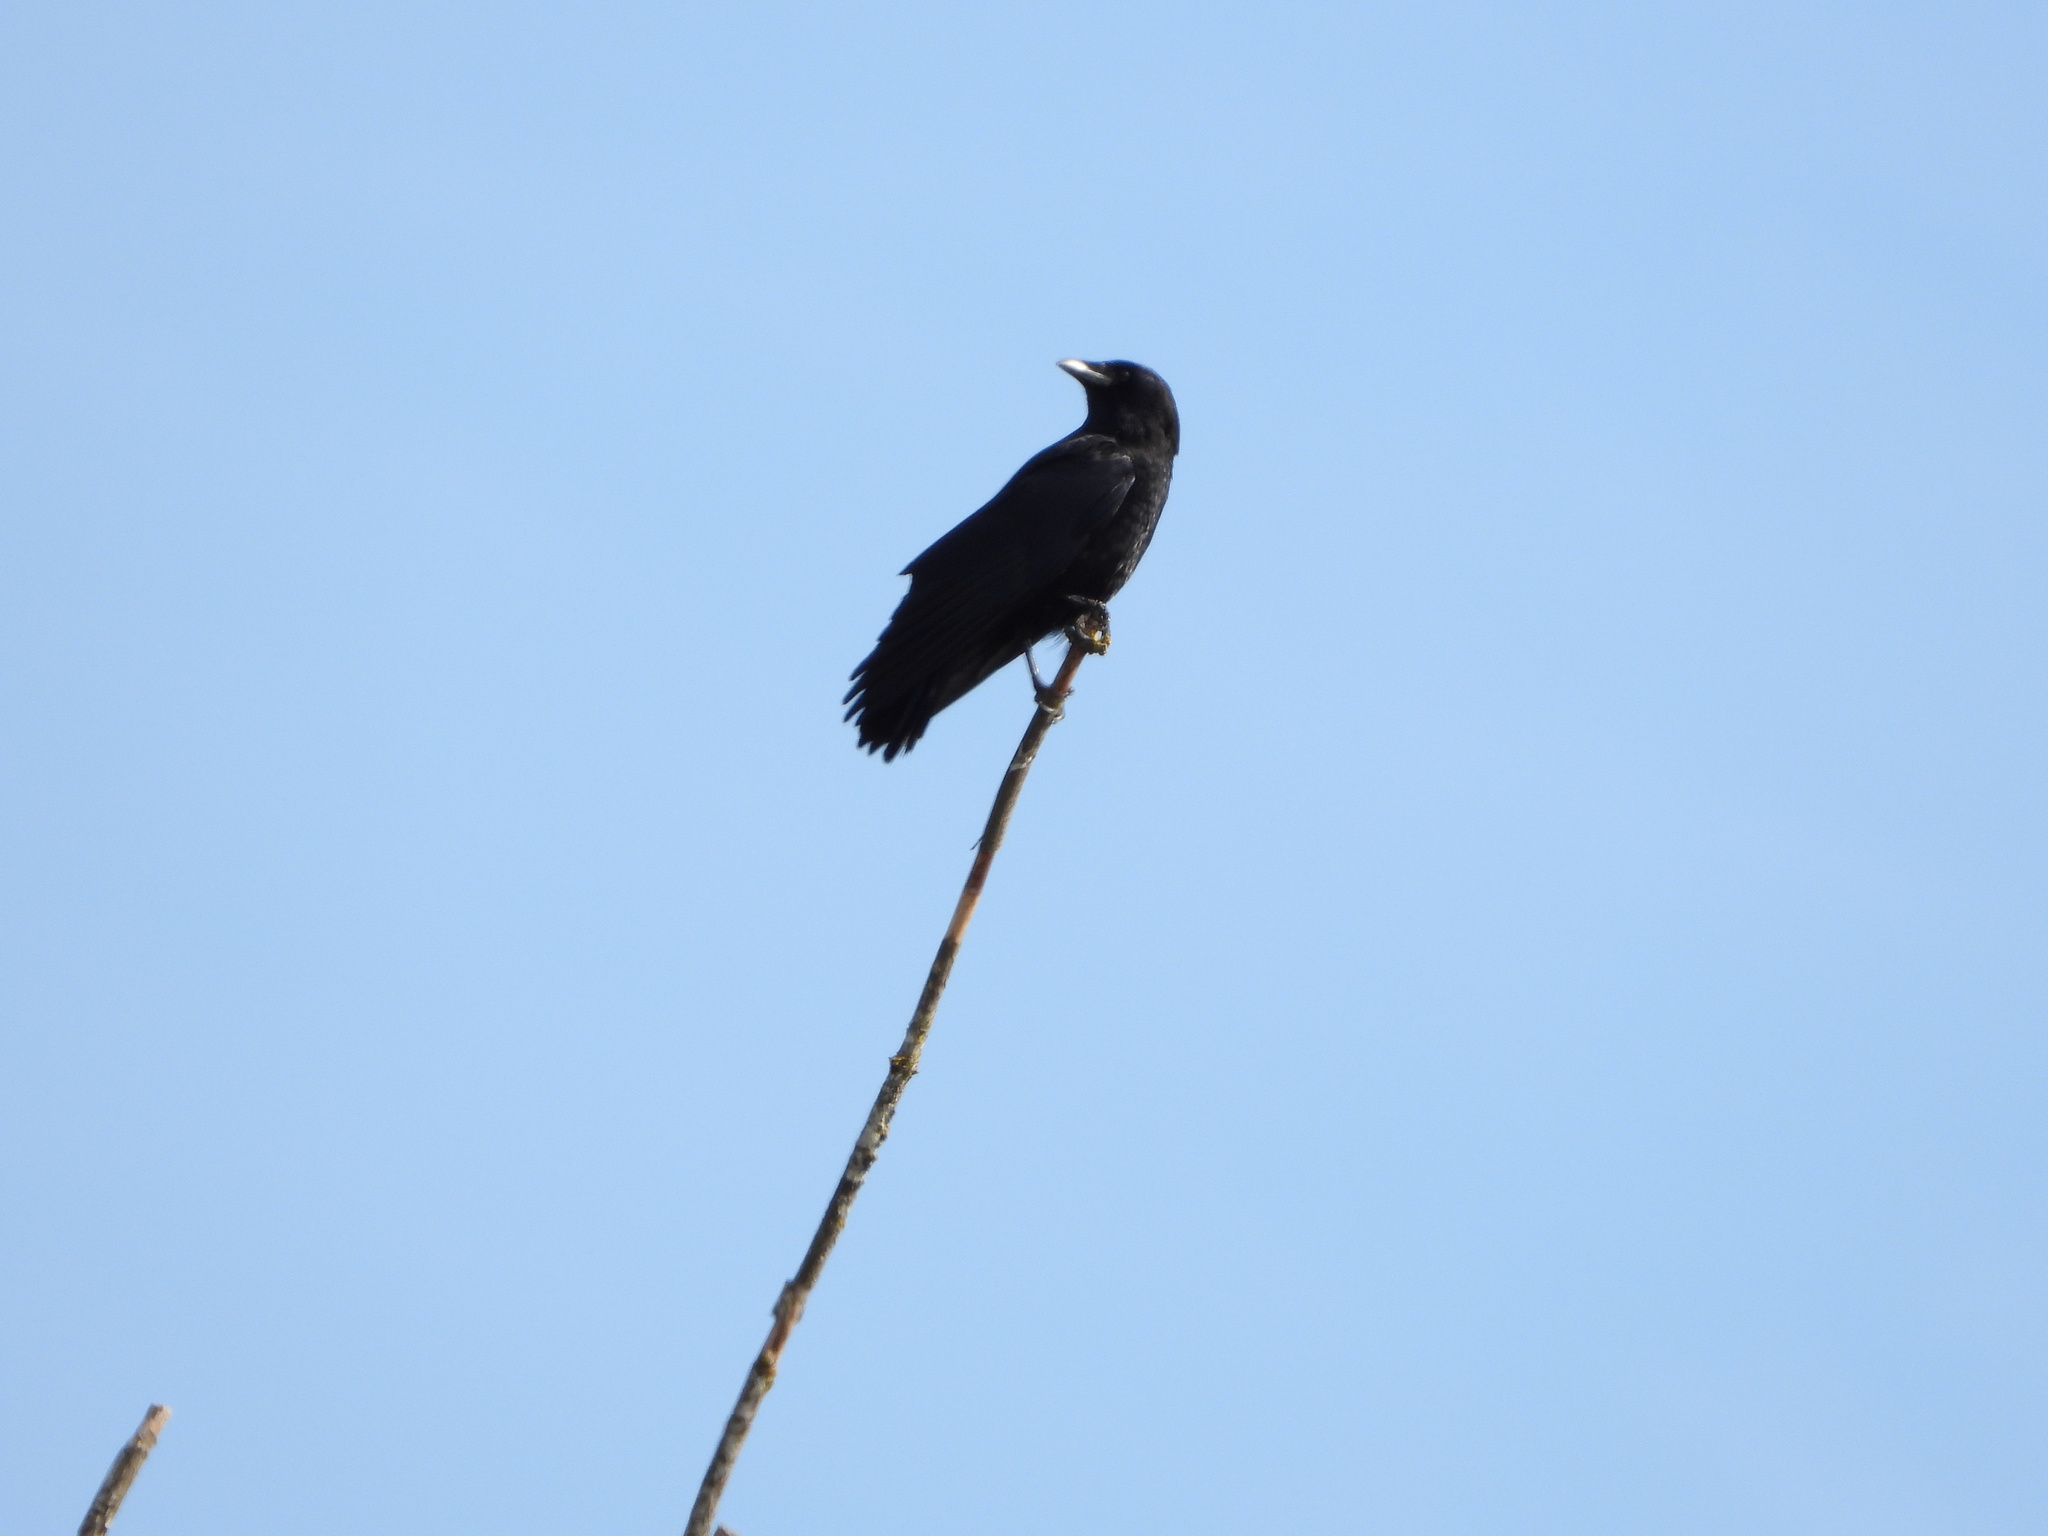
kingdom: Animalia
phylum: Chordata
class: Aves
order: Passeriformes
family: Corvidae
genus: Corvus
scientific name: Corvus brachyrhynchos
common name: American crow
